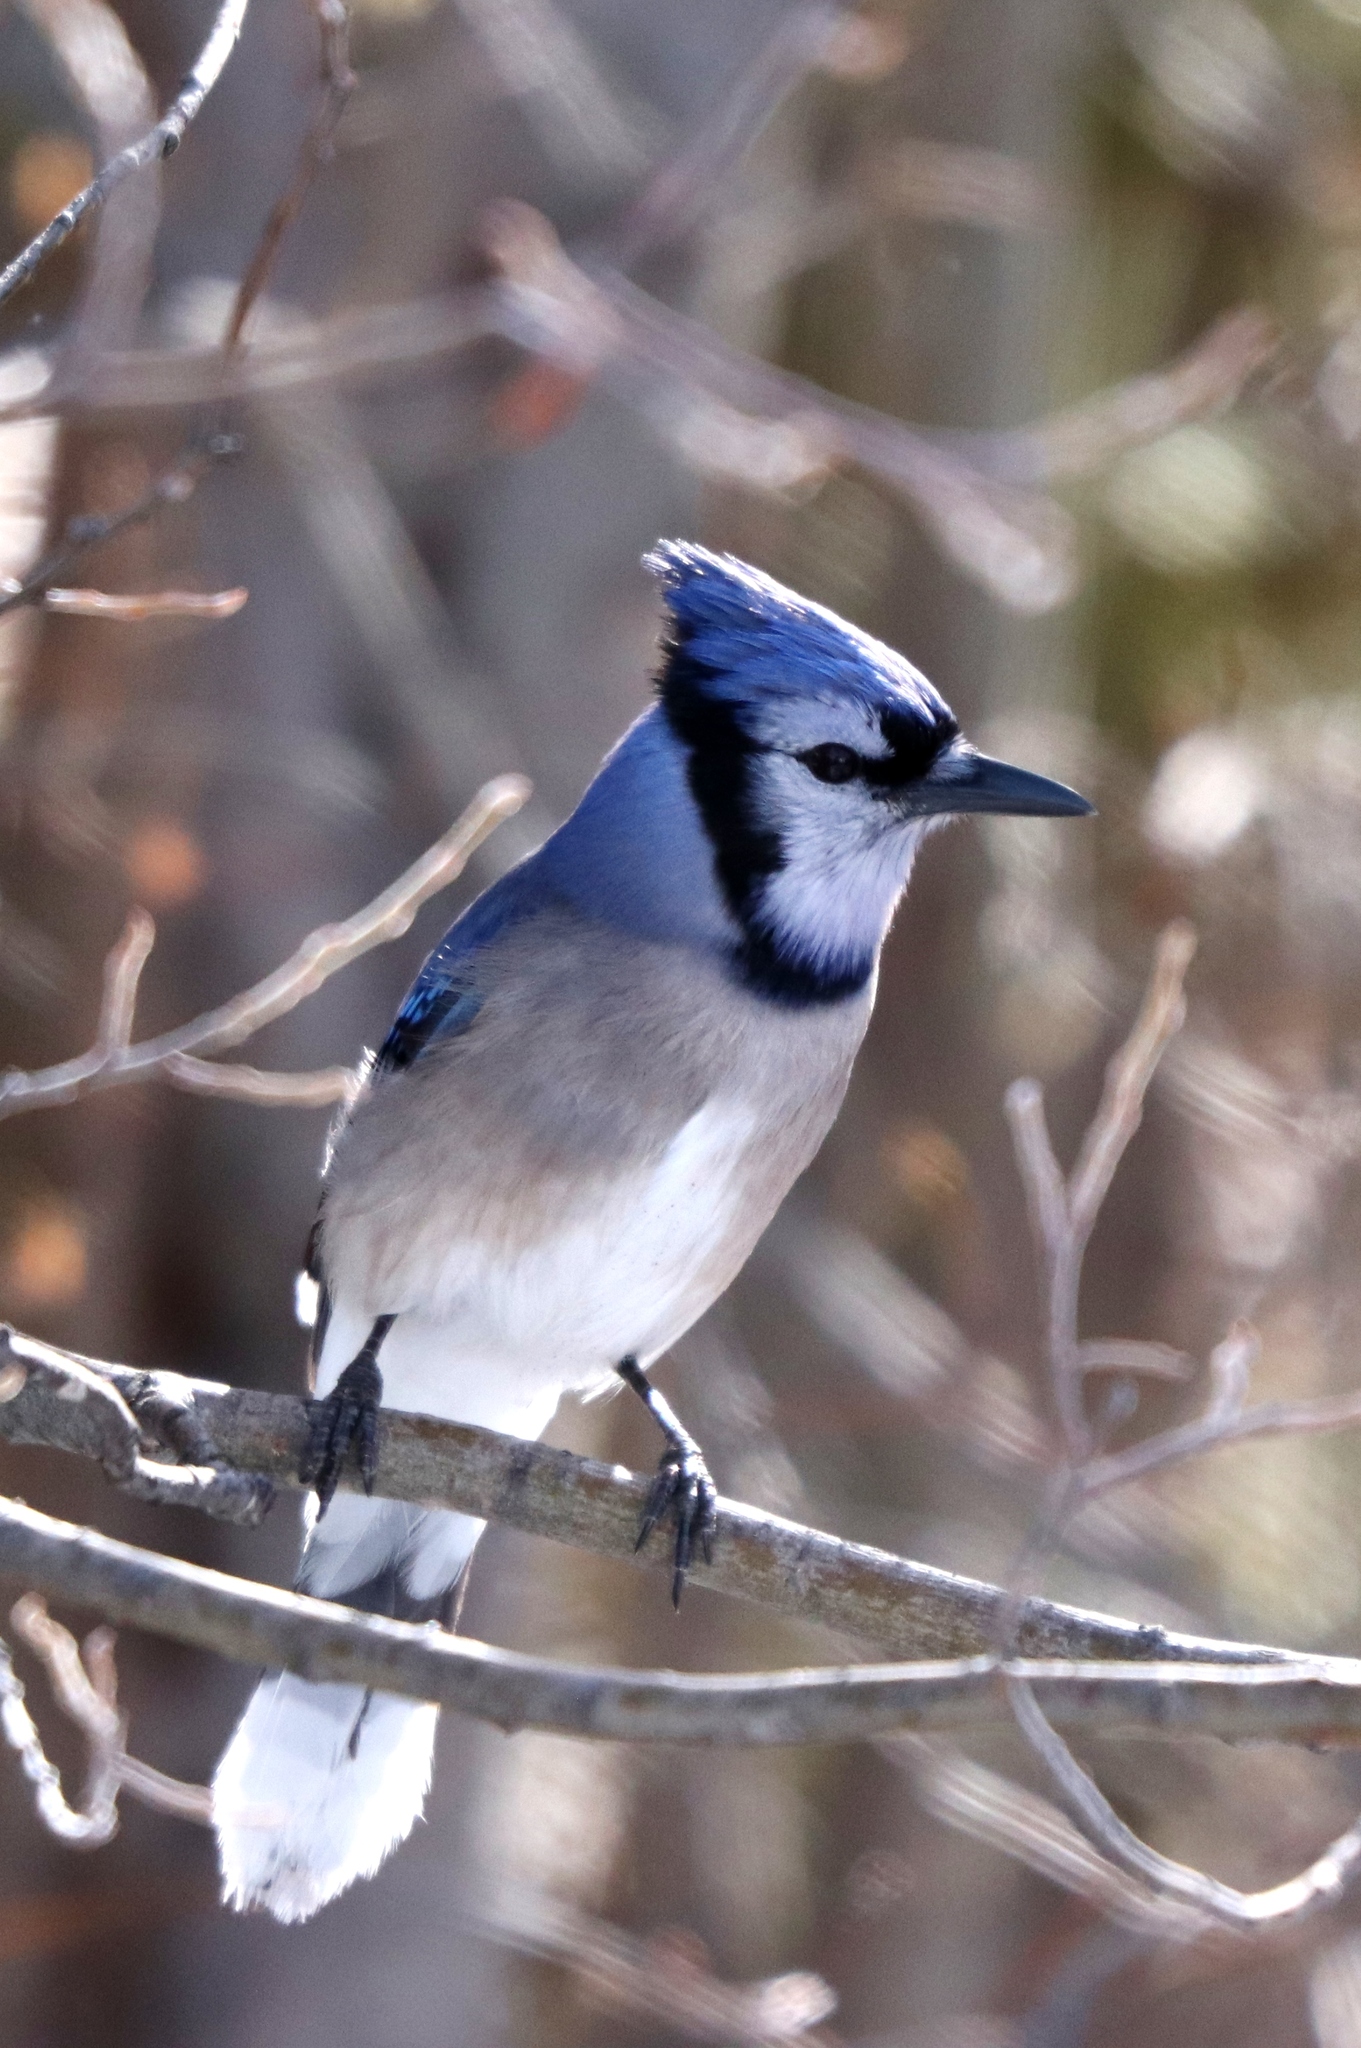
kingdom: Animalia
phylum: Chordata
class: Aves
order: Passeriformes
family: Corvidae
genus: Cyanocitta
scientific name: Cyanocitta cristata
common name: Blue jay
